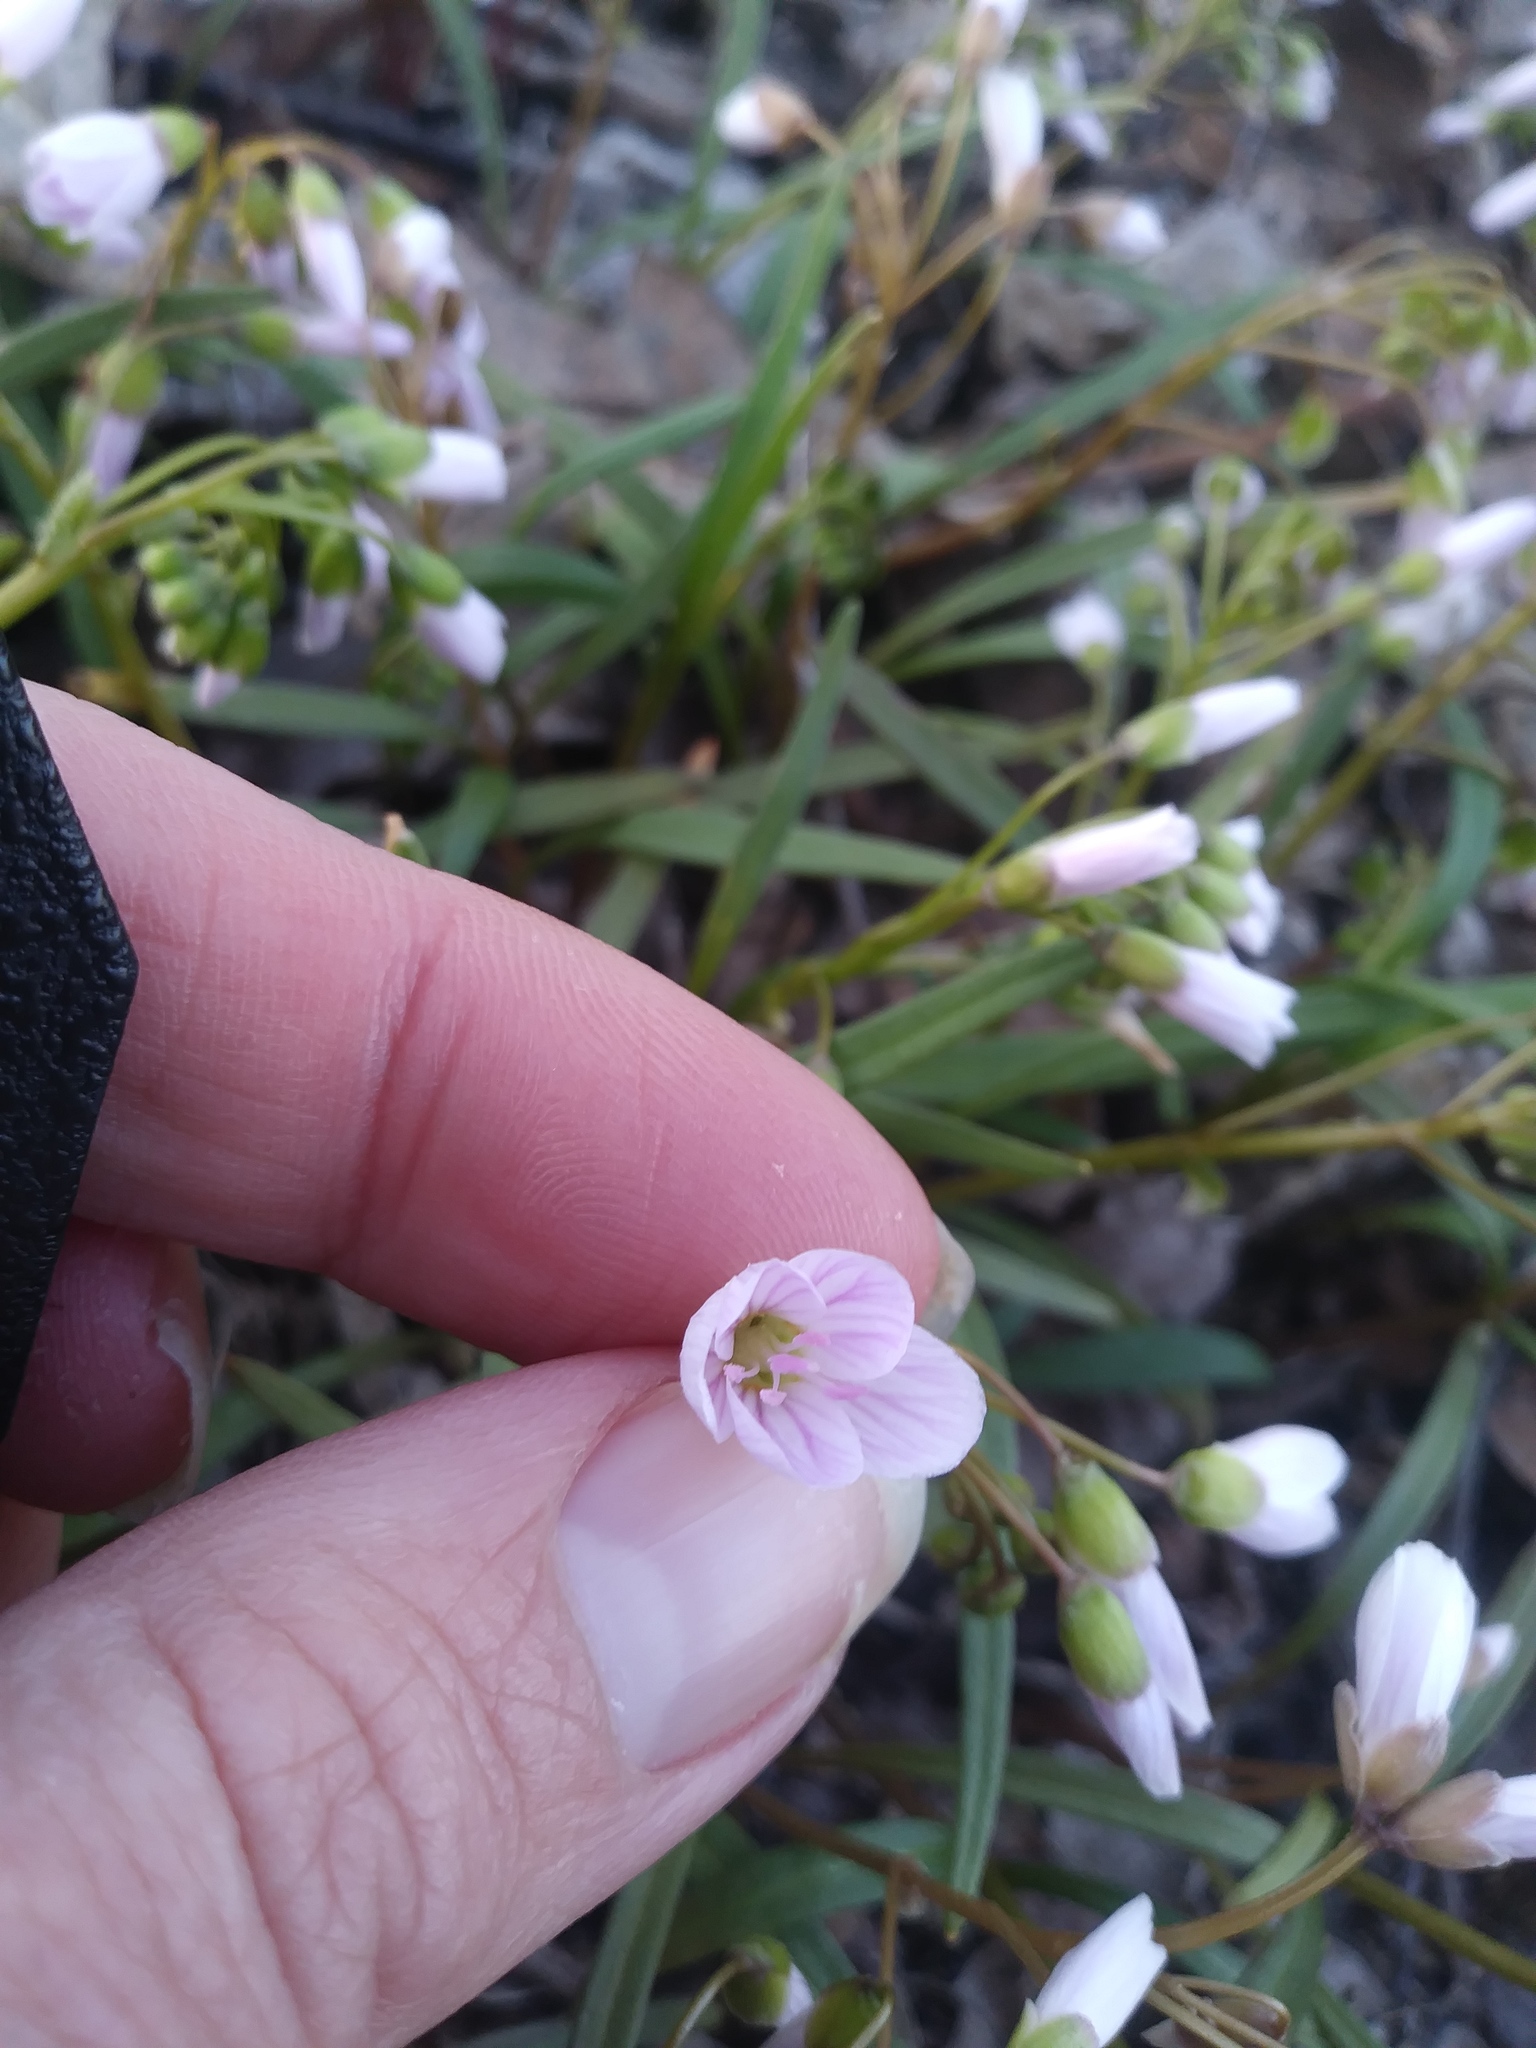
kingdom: Plantae
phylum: Tracheophyta
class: Magnoliopsida
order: Caryophyllales
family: Montiaceae
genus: Claytonia
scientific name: Claytonia virginica
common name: Virginia springbeauty
